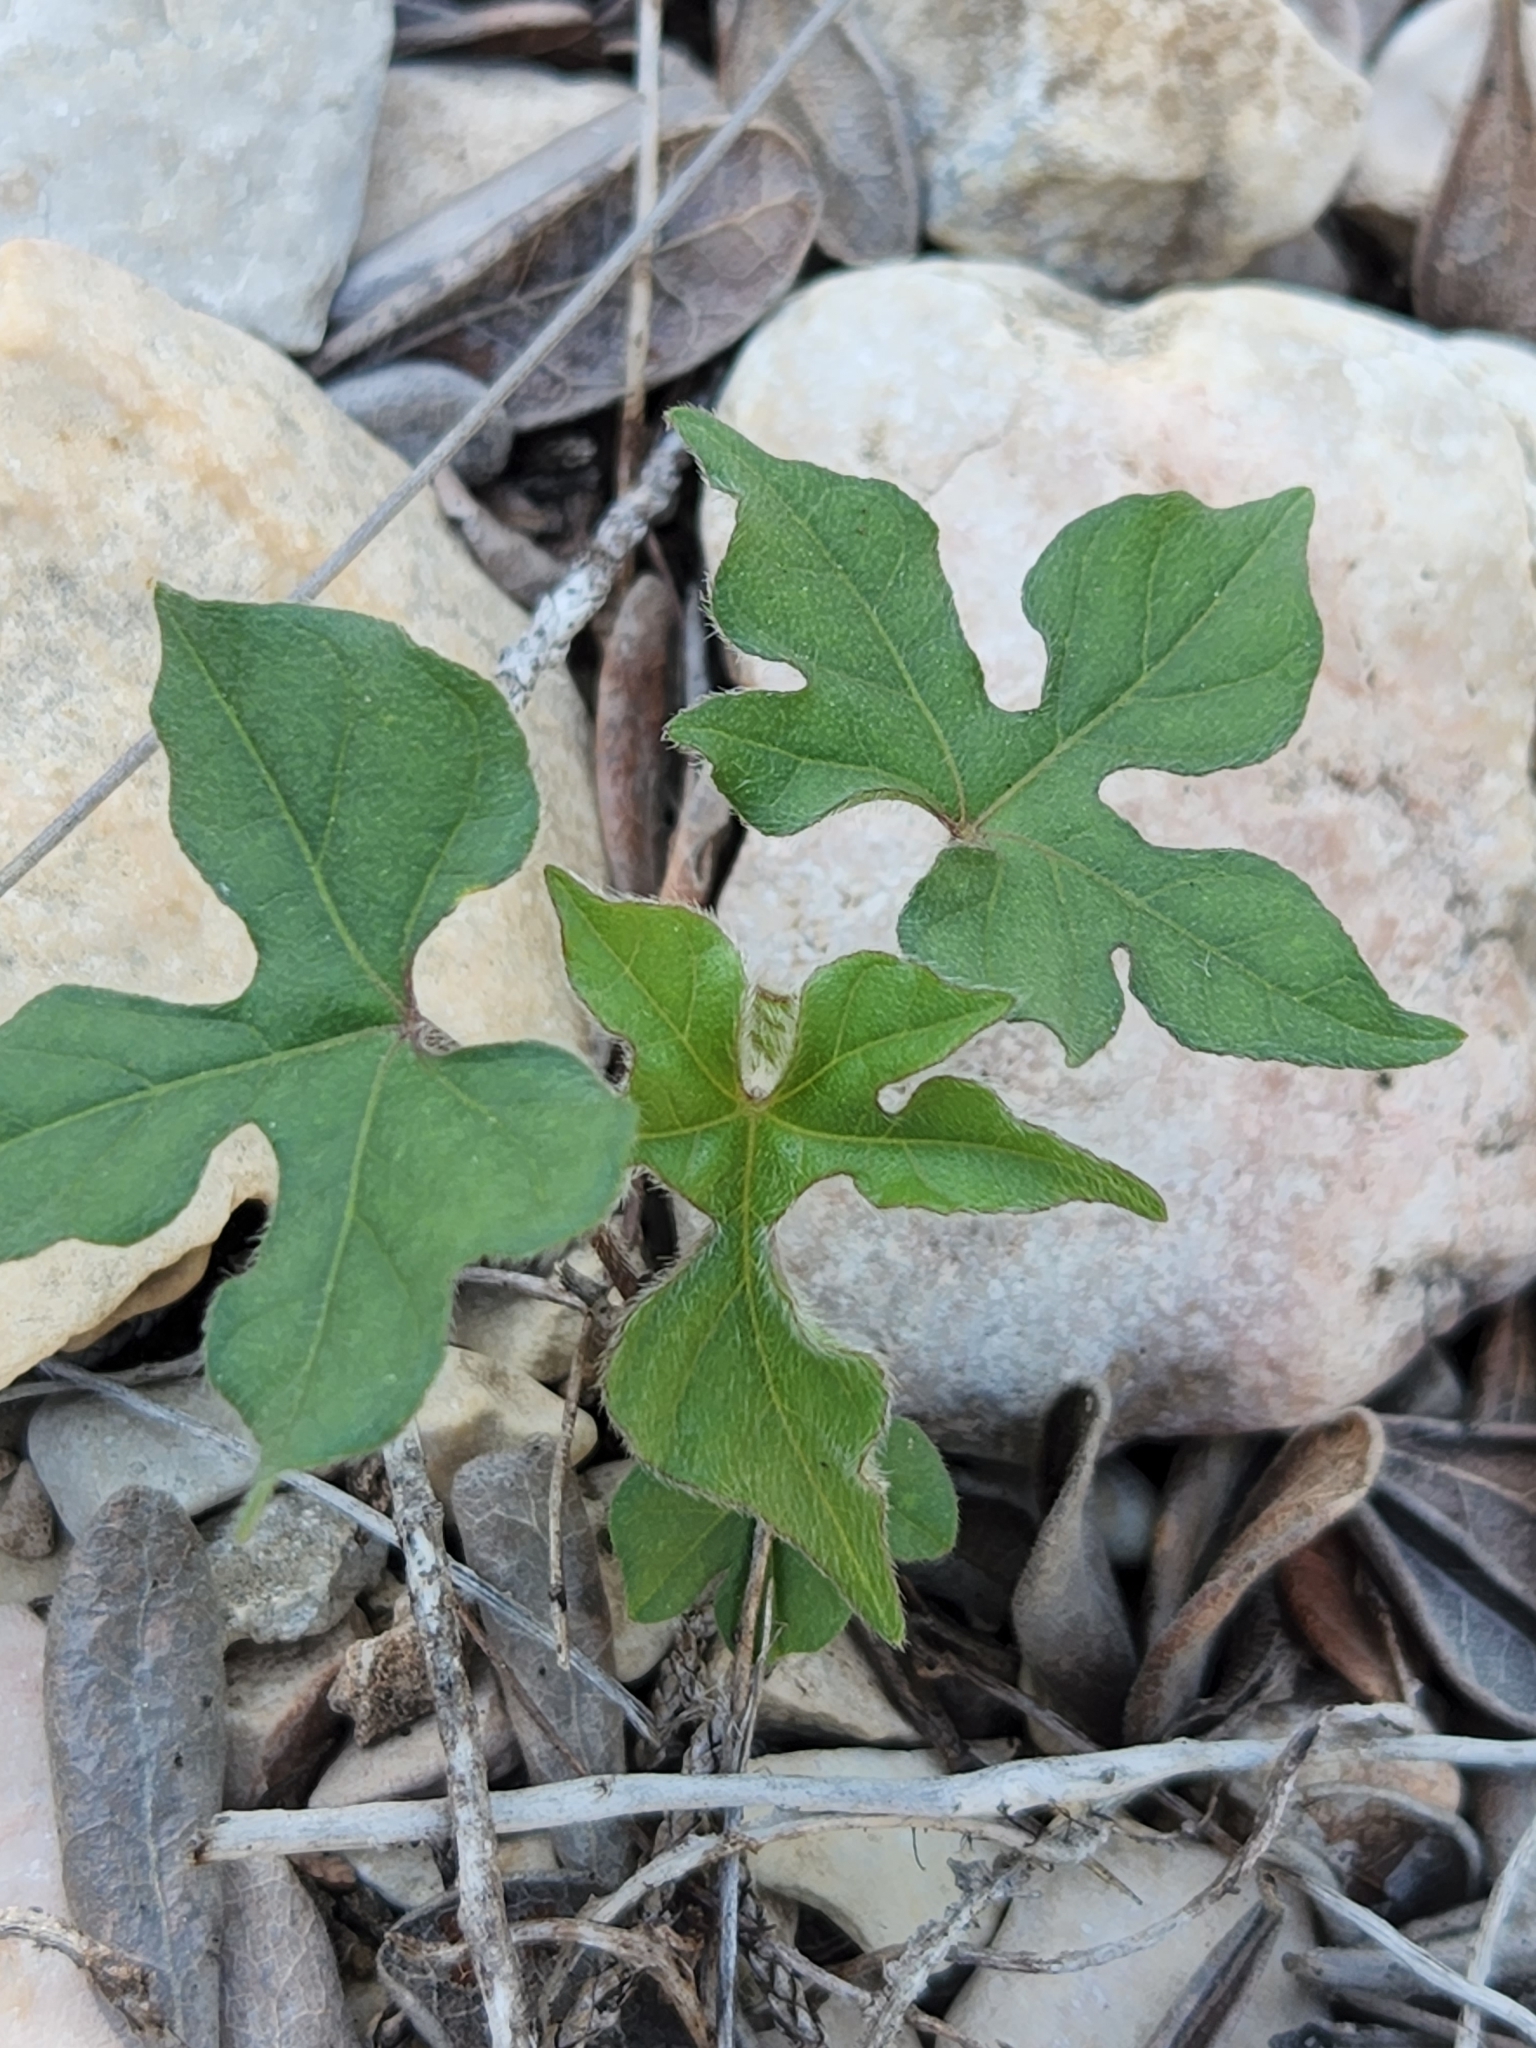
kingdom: Plantae
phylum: Tracheophyta
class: Magnoliopsida
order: Solanales
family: Convolvulaceae
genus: Ipomoea
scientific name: Ipomoea lindheimeri
